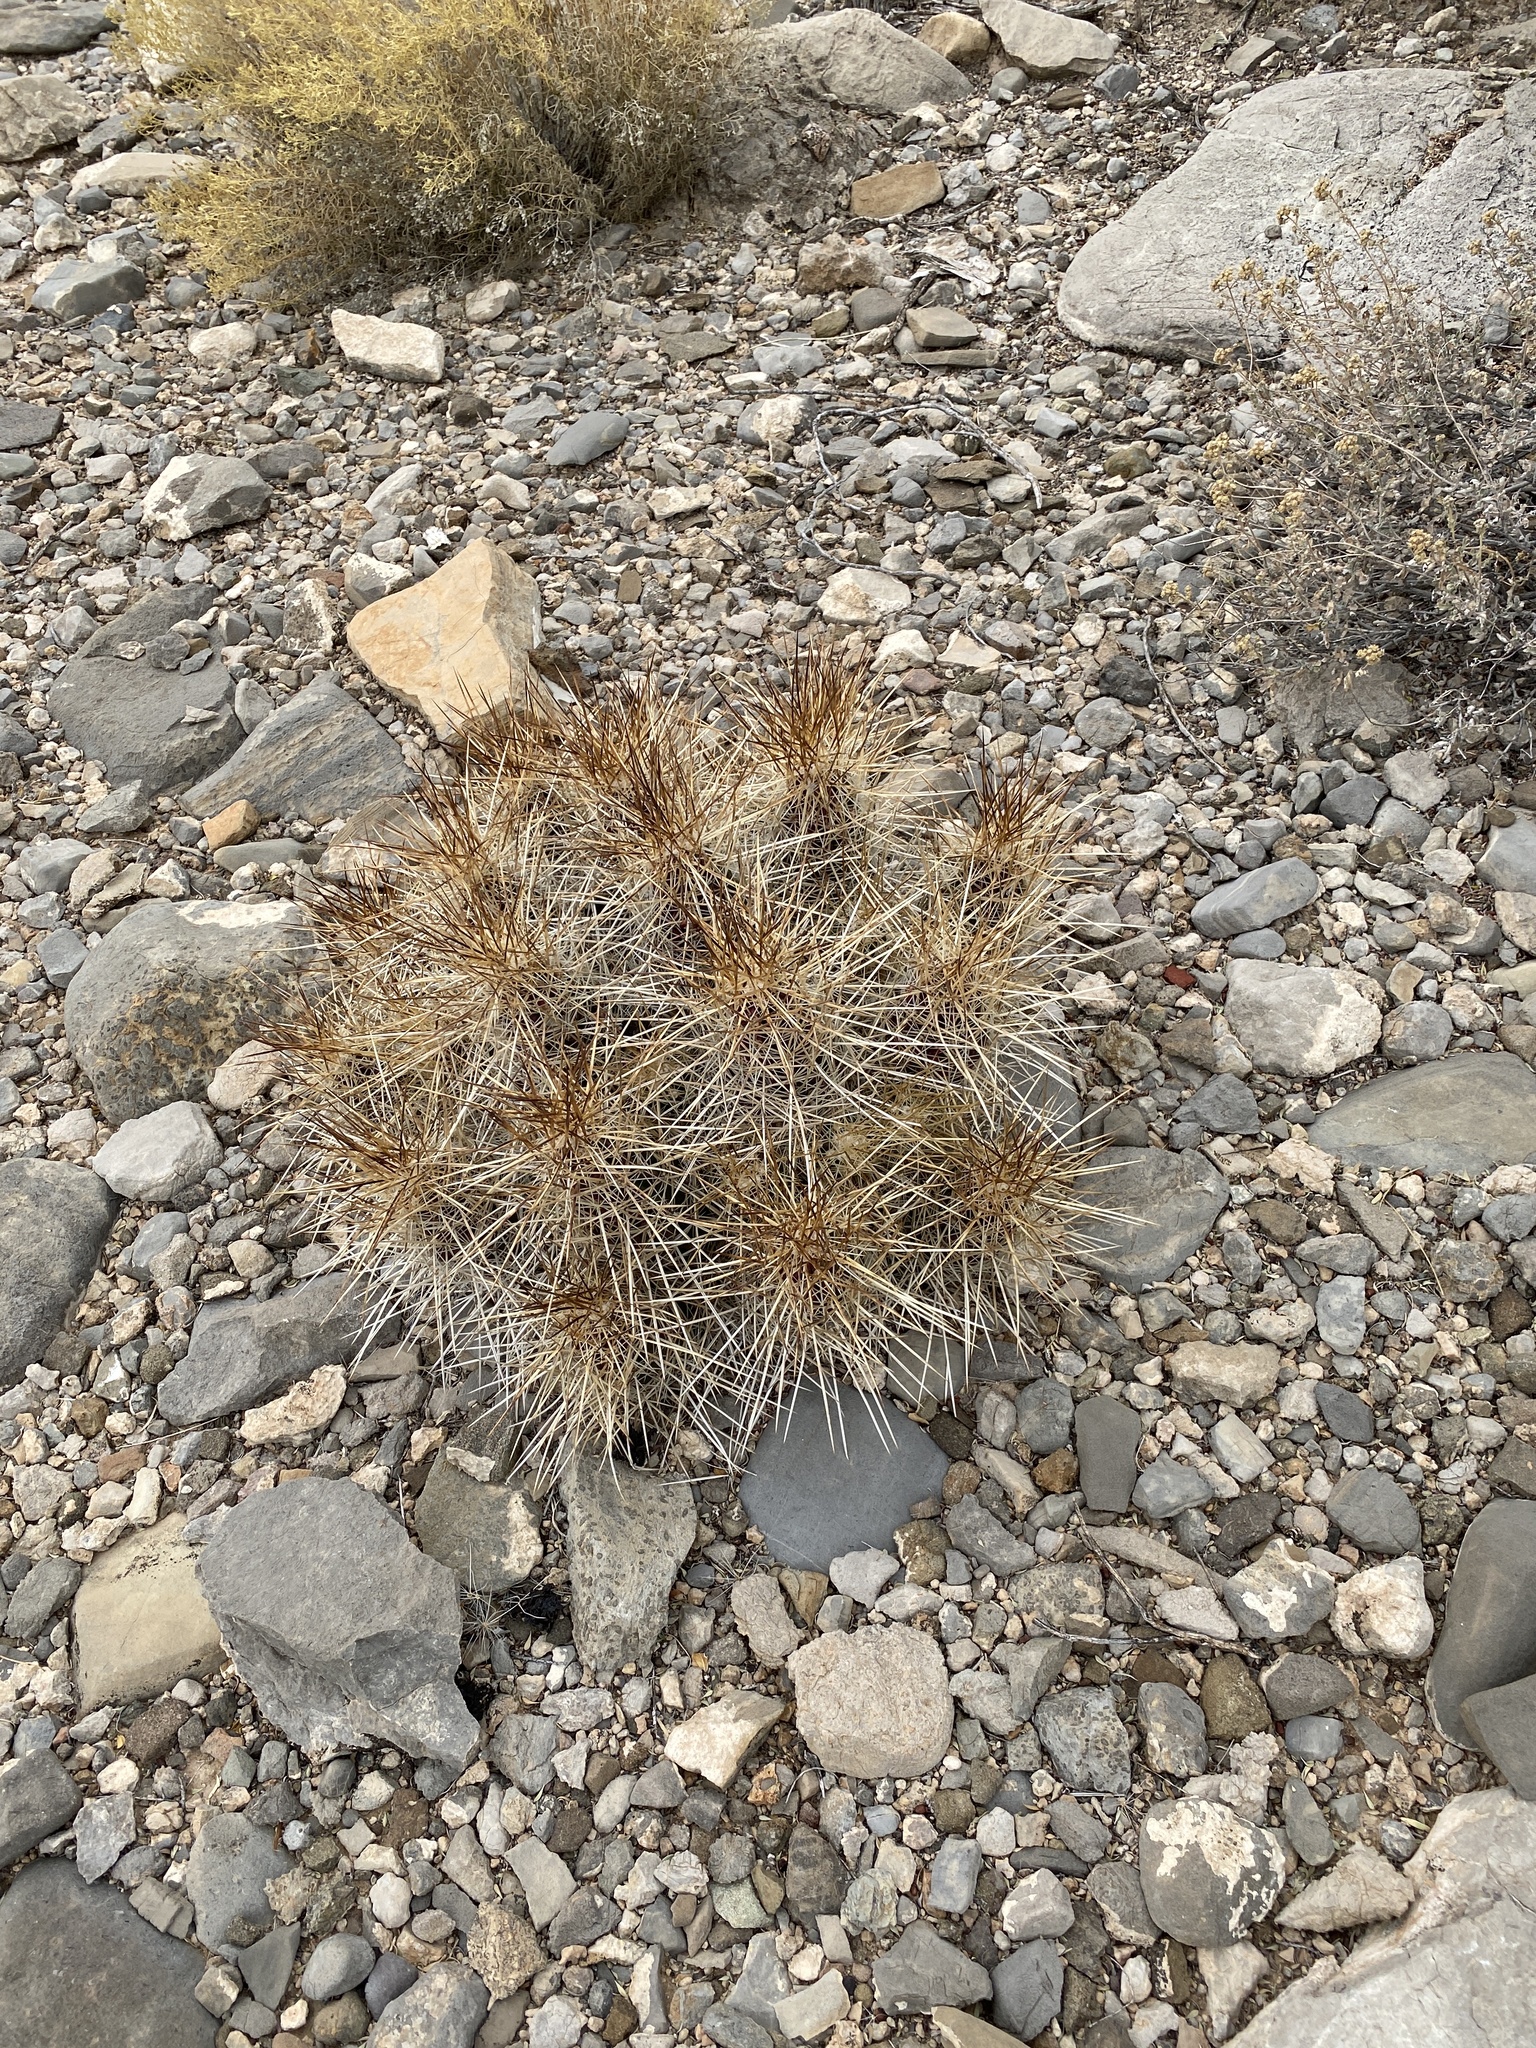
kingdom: Plantae
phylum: Tracheophyta
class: Magnoliopsida
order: Caryophyllales
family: Cactaceae
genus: Echinocereus
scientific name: Echinocereus stramineus
